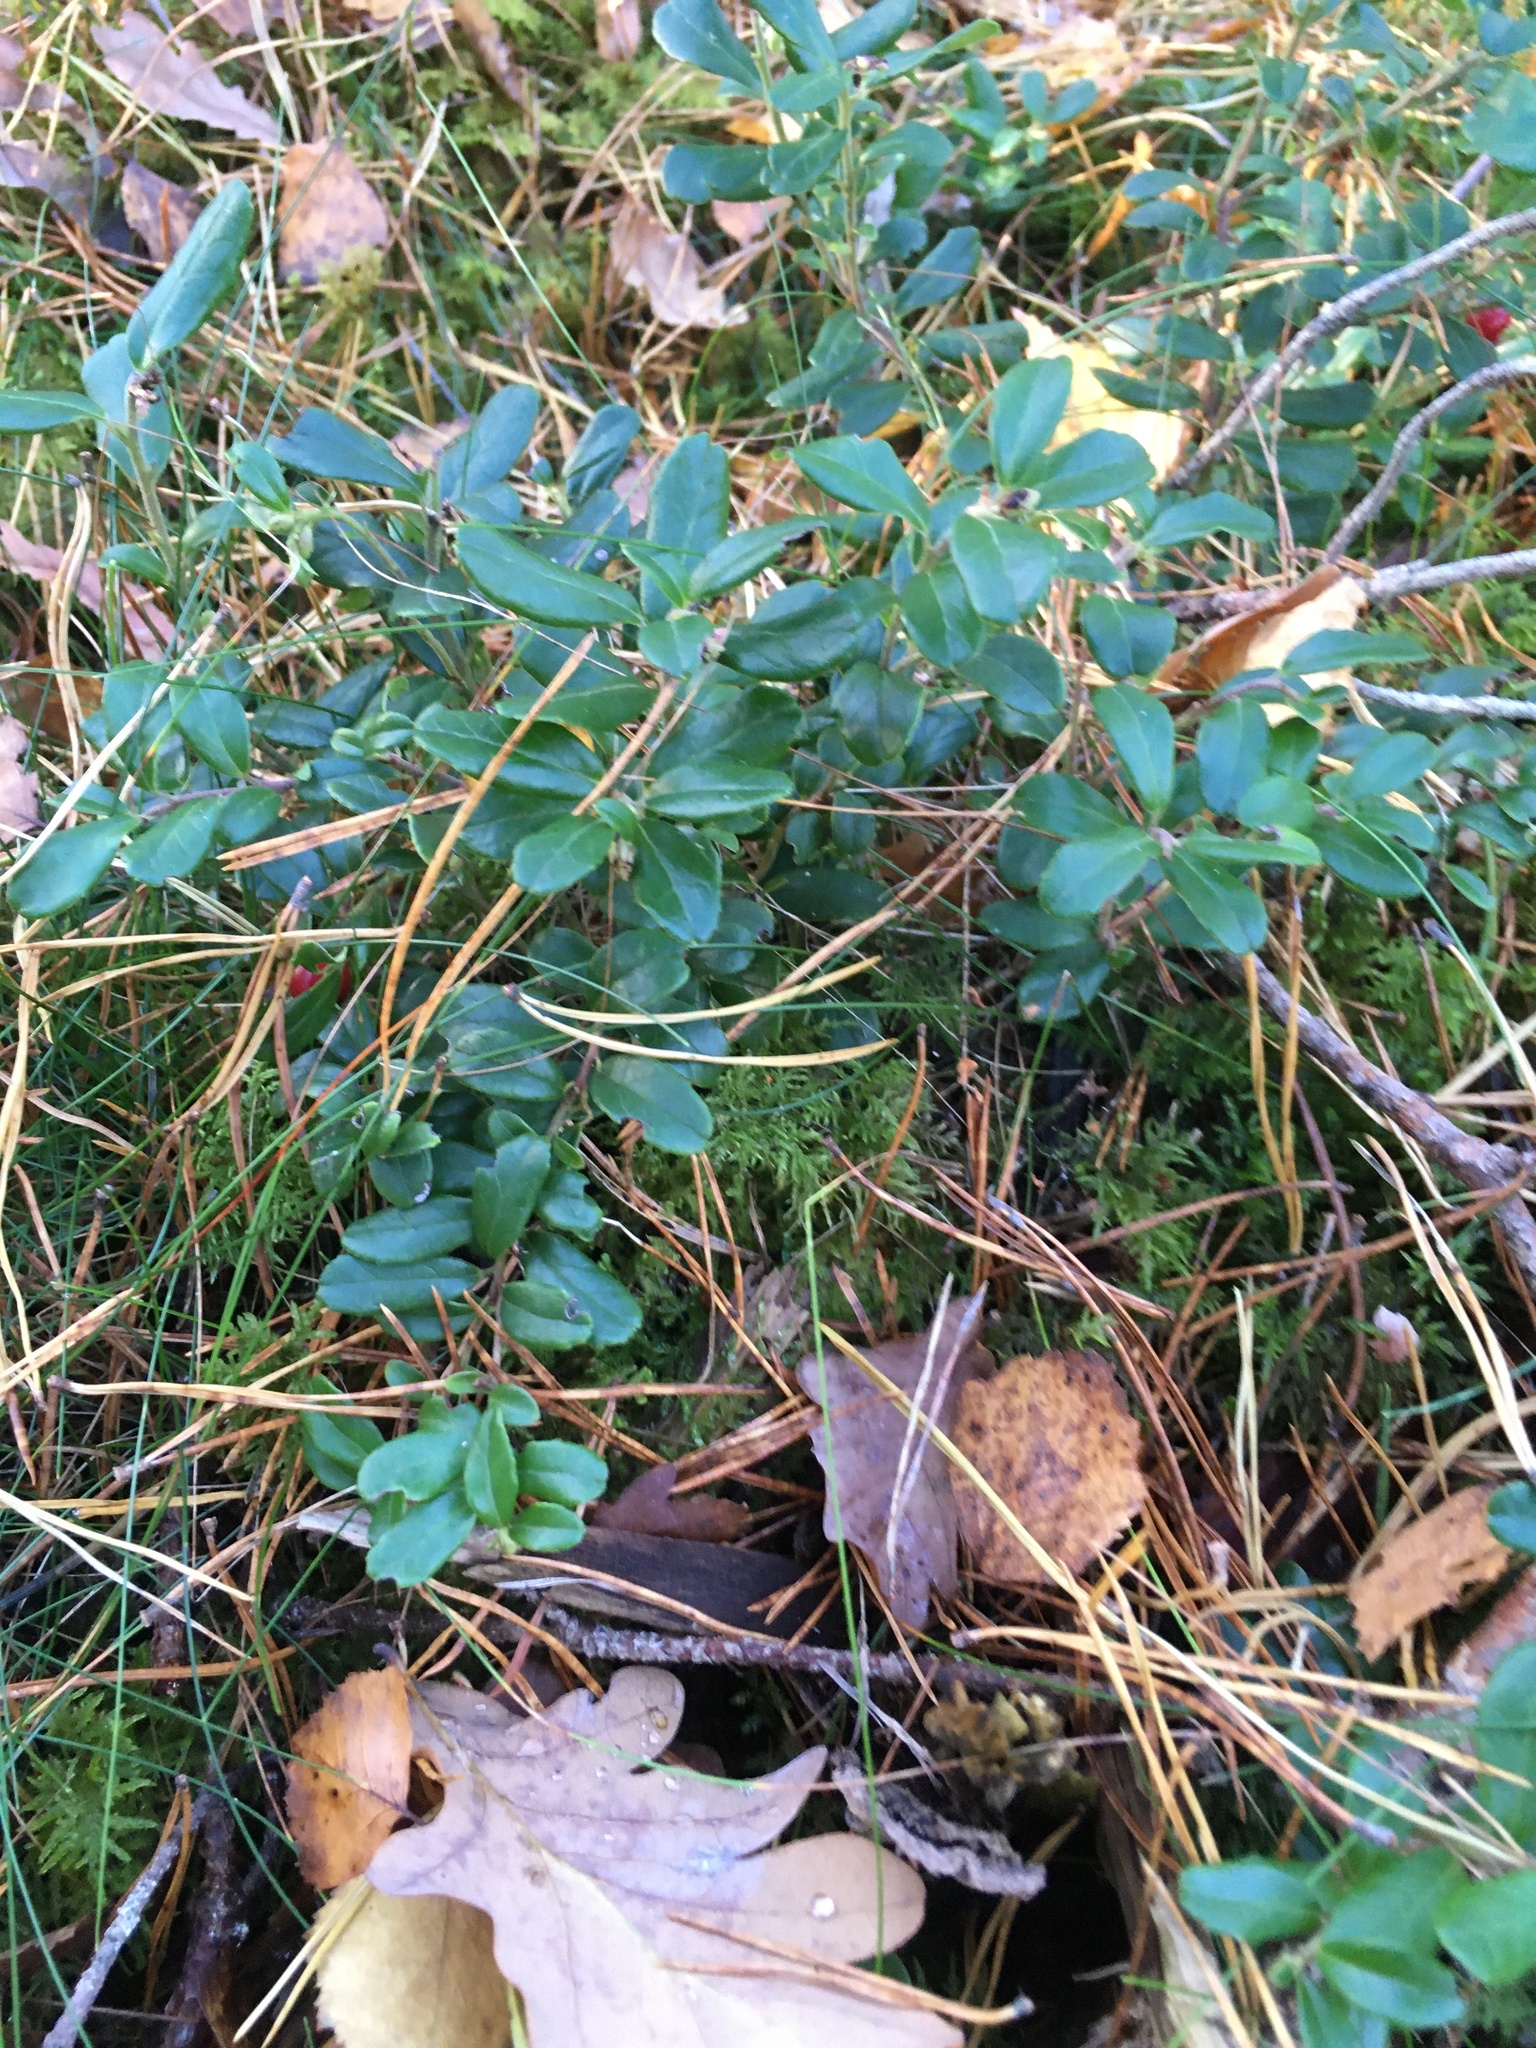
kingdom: Plantae
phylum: Tracheophyta
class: Magnoliopsida
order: Ericales
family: Ericaceae
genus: Vaccinium
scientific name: Vaccinium vitis-idaea
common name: Cowberry
